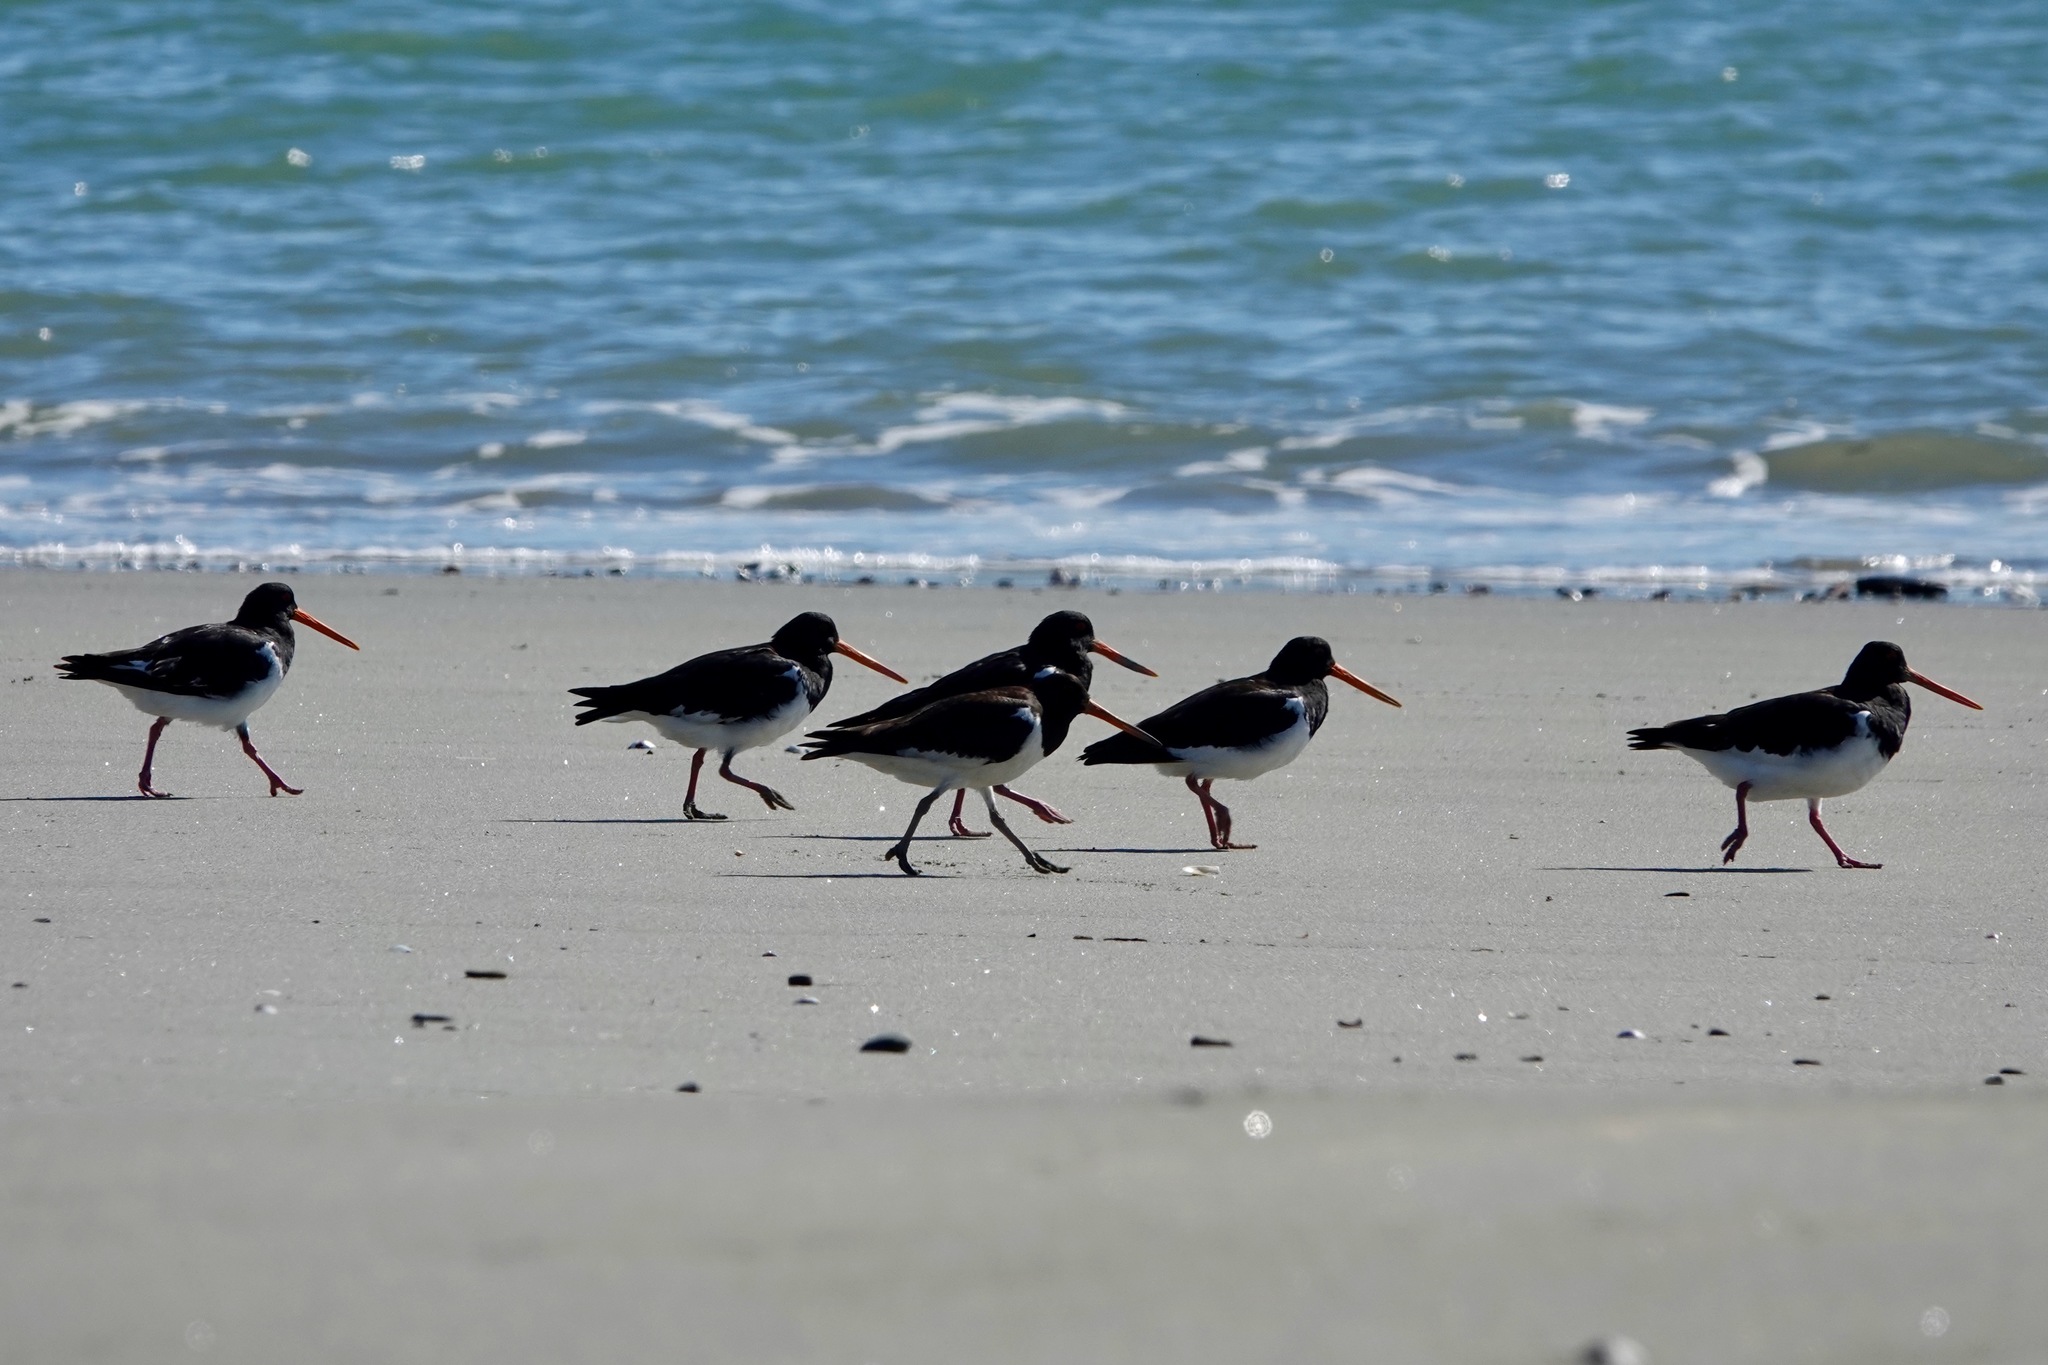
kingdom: Animalia
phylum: Chordata
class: Aves
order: Charadriiformes
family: Haematopodidae
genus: Haematopus
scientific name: Haematopus finschi
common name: South island oystercatcher
